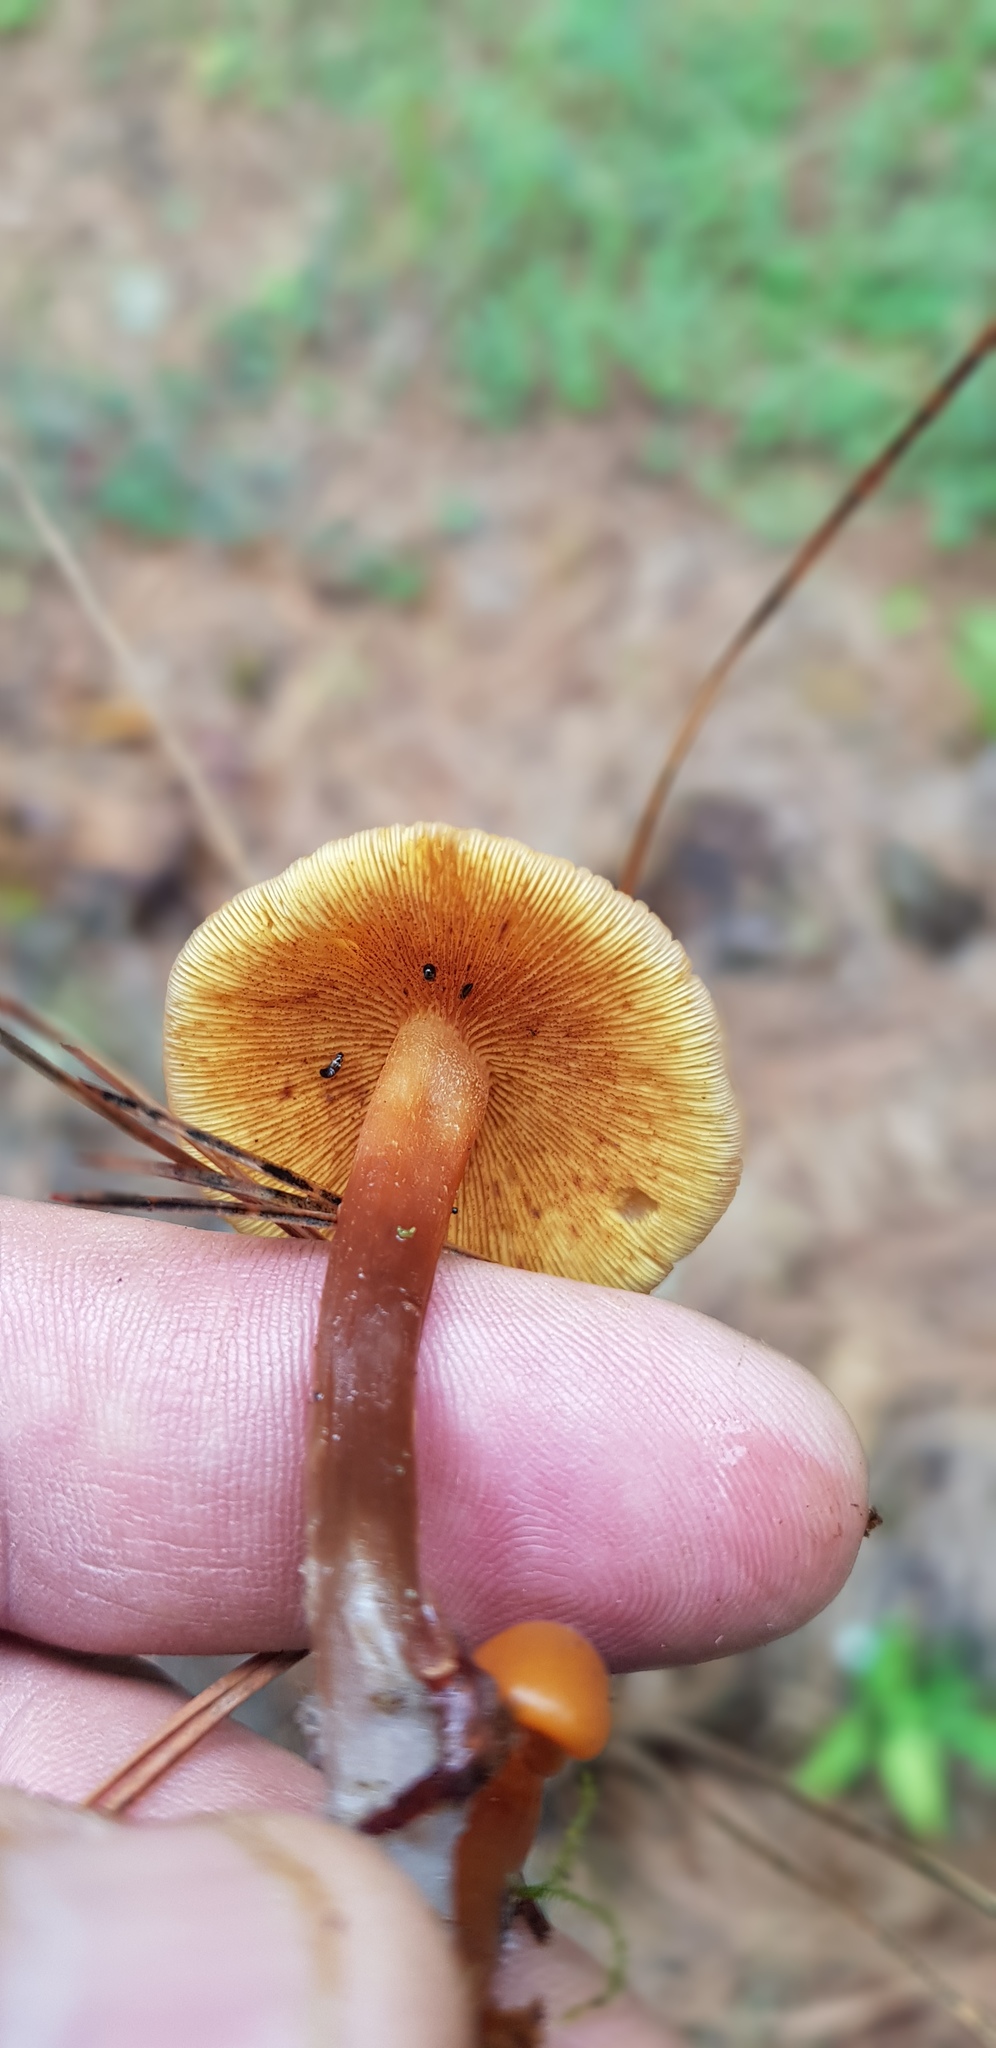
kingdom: Fungi
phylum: Basidiomycota
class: Agaricomycetes
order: Agaricales
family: Hymenogastraceae
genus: Gymnopilus
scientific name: Gymnopilus picreus
